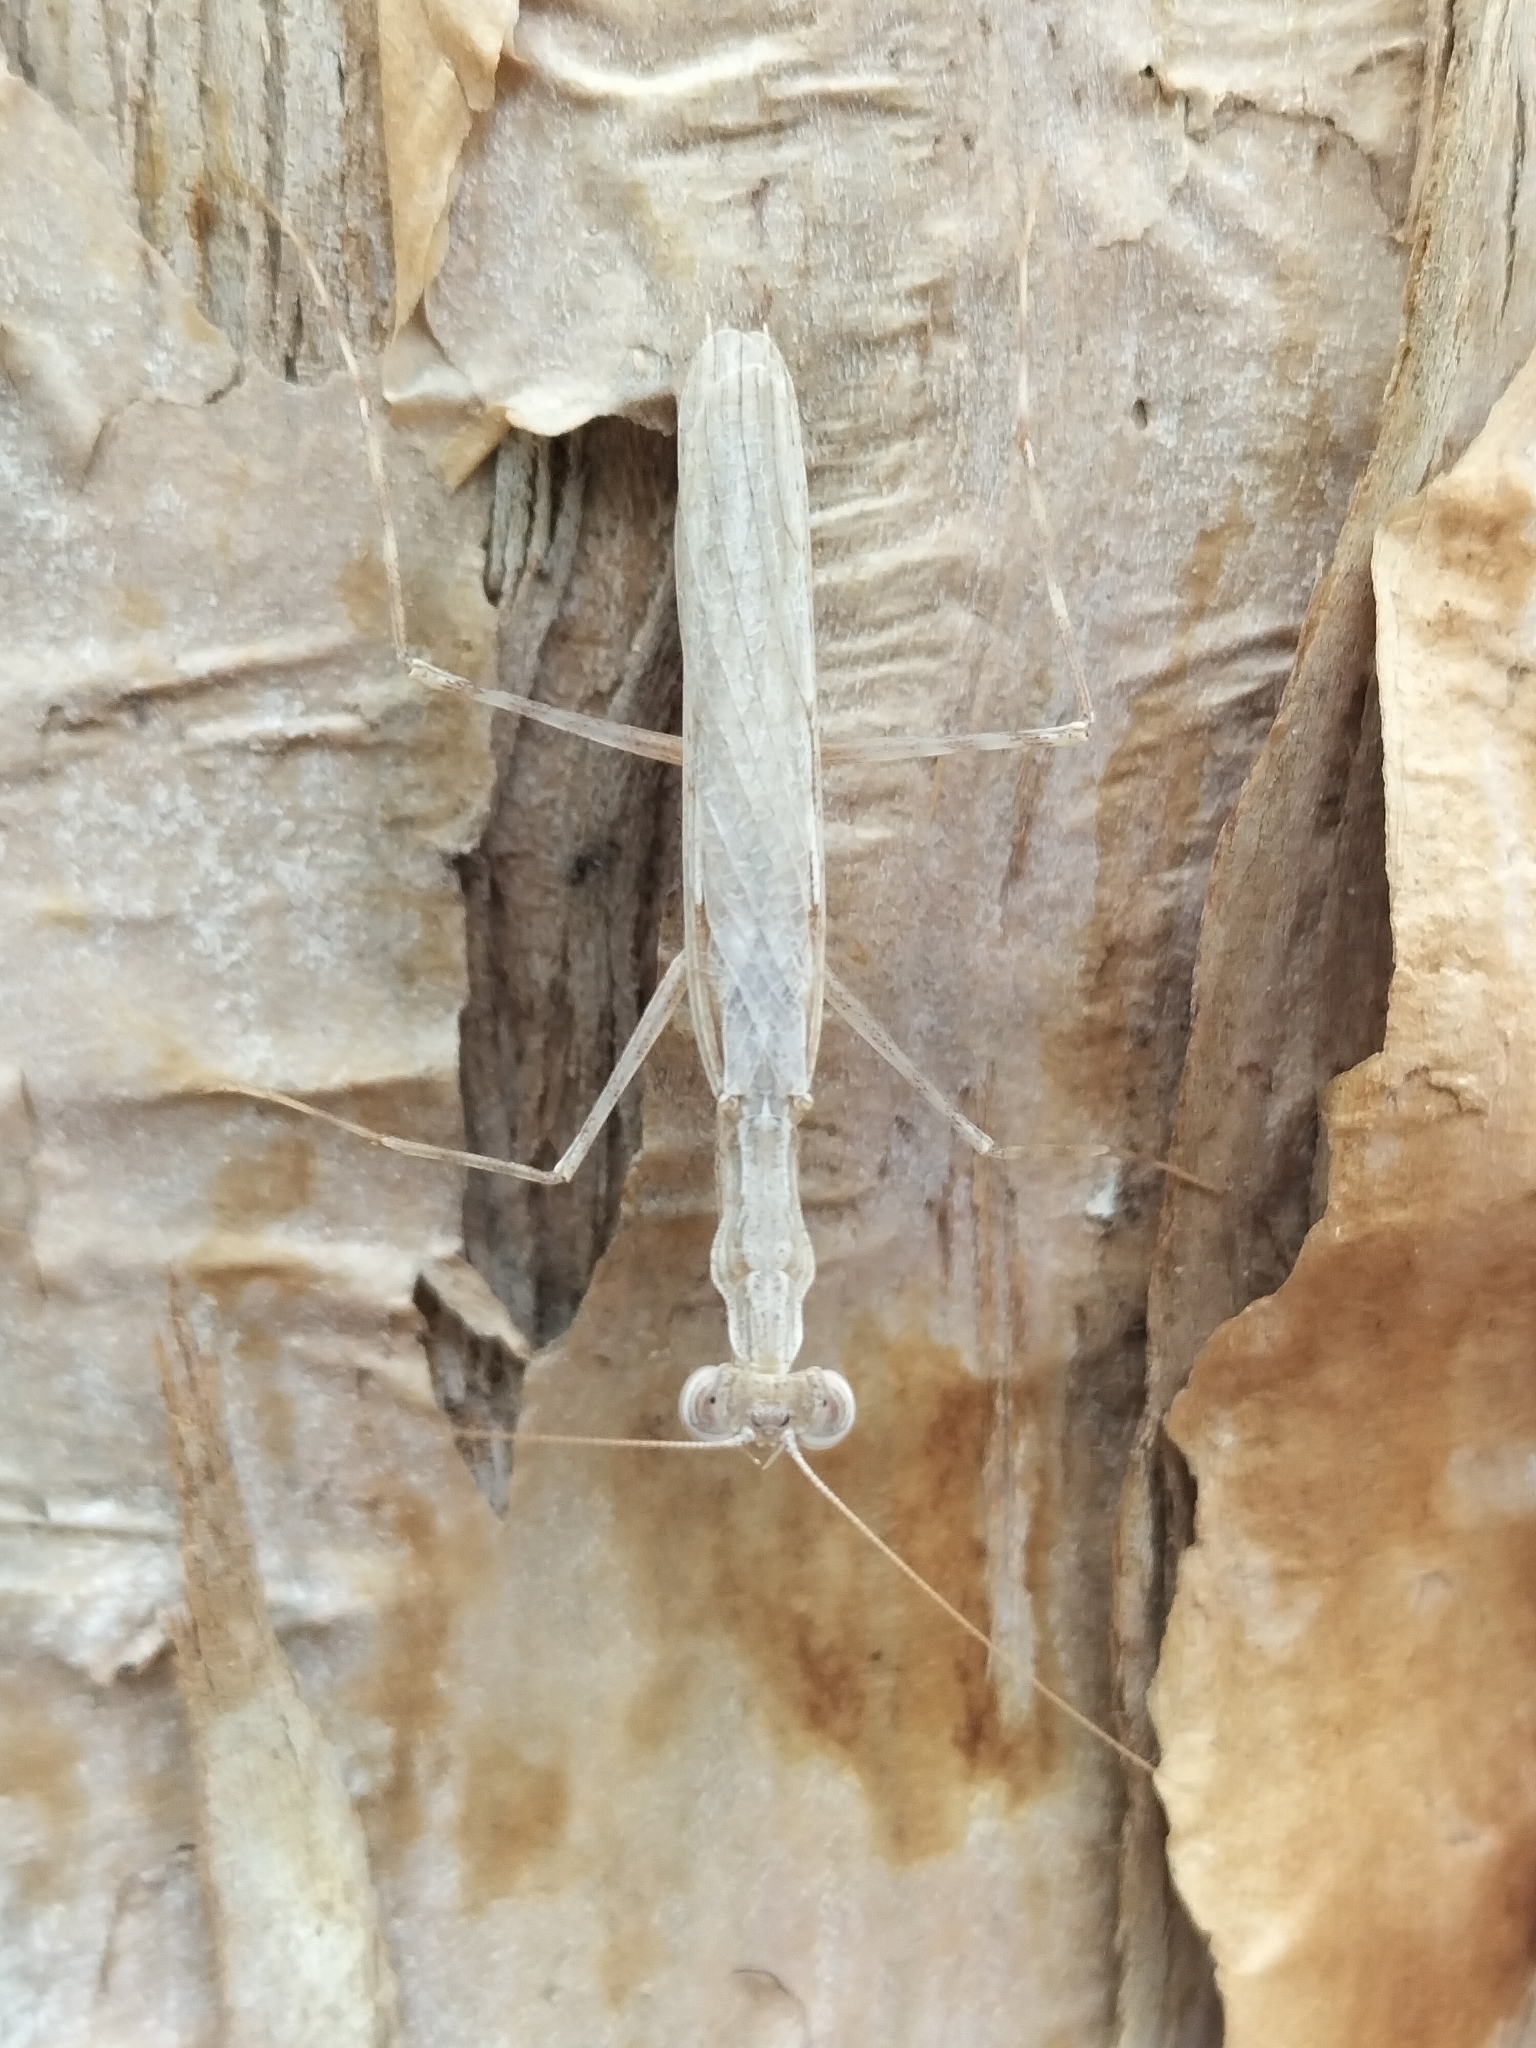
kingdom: Animalia
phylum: Arthropoda
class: Insecta
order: Mantodea
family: Nanomantidae
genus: Ima
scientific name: Ima fusca
